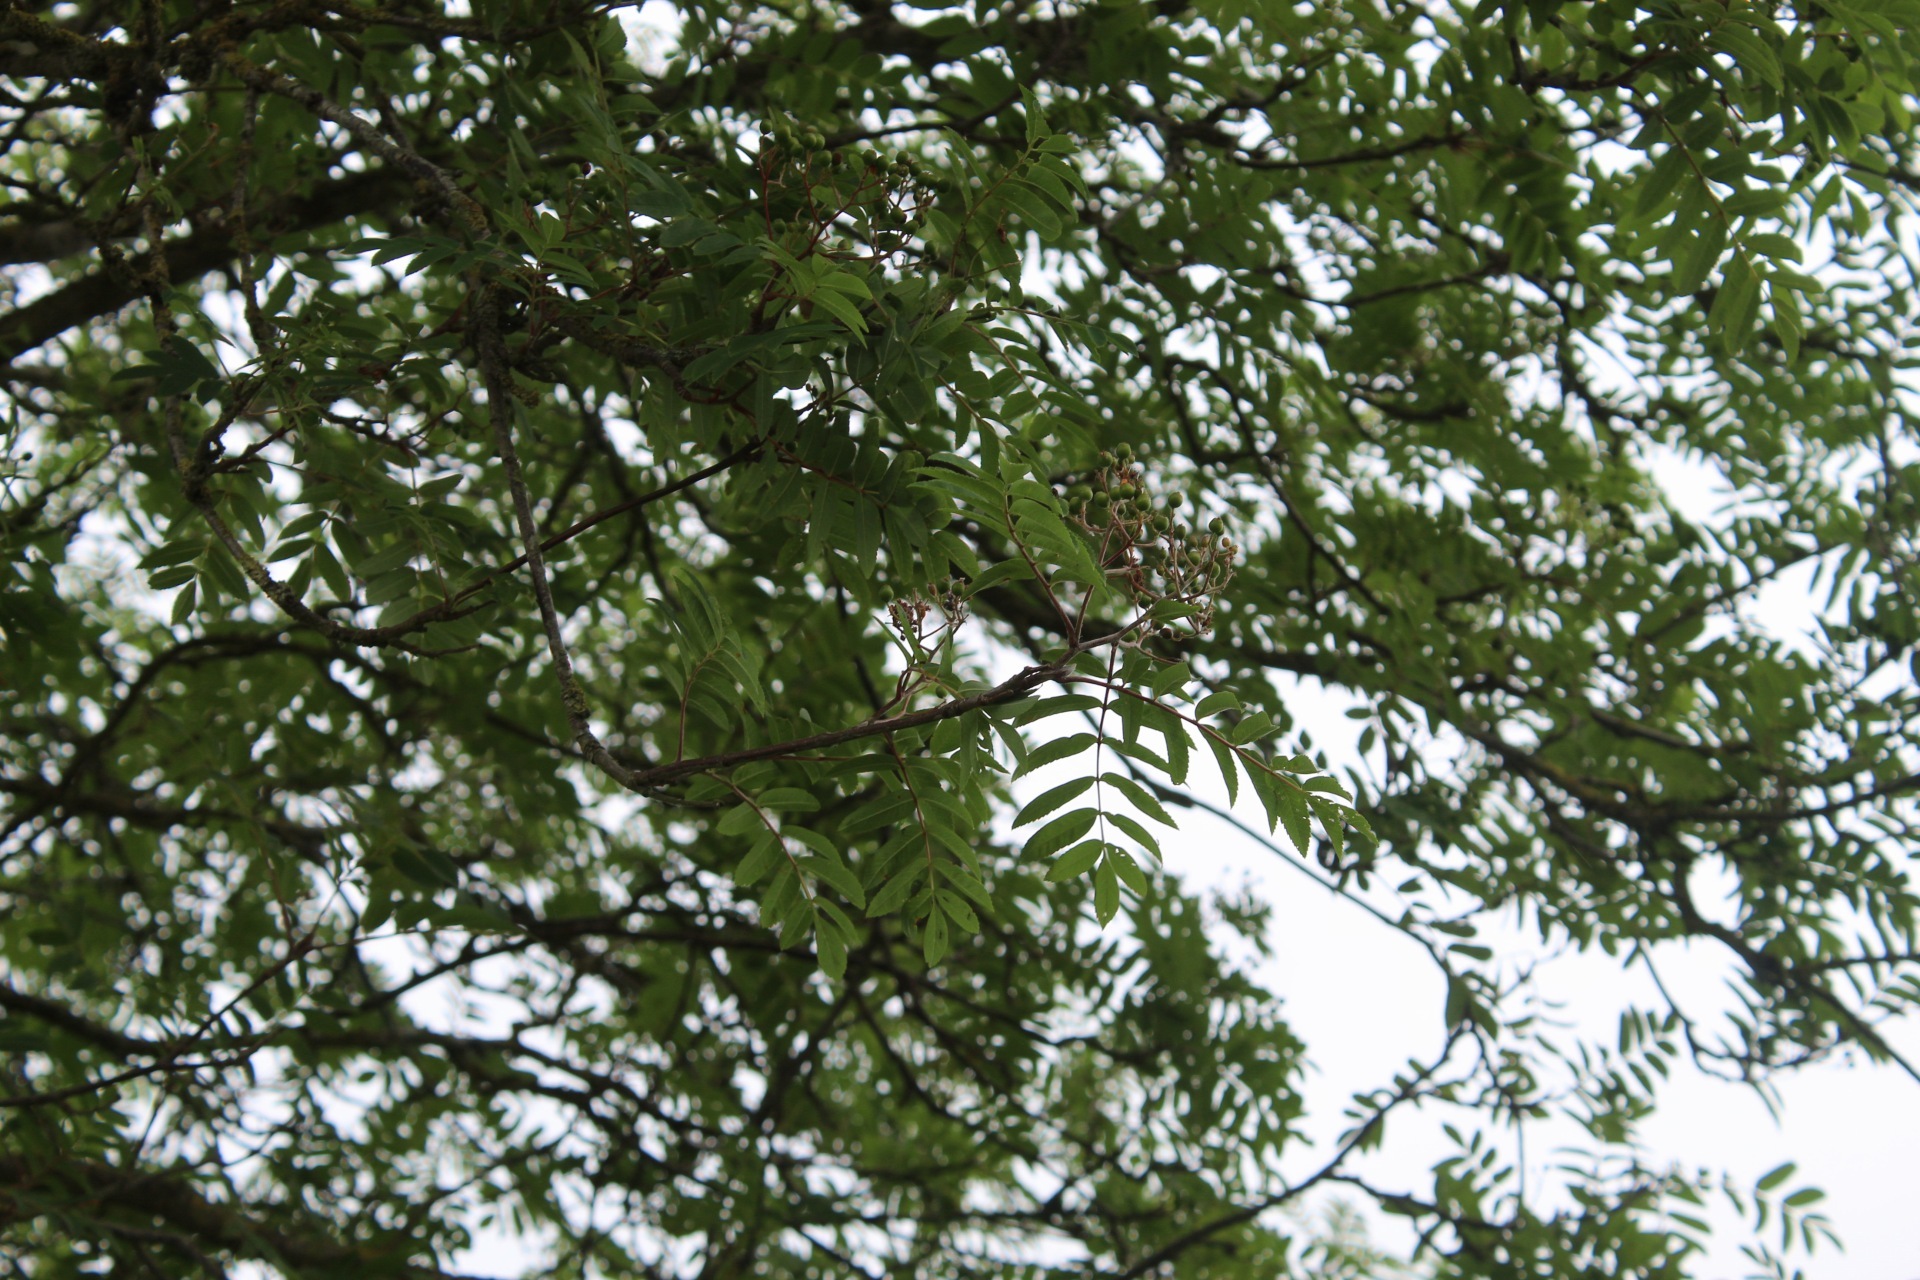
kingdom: Plantae
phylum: Tracheophyta
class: Magnoliopsida
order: Rosales
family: Rosaceae
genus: Sorbus
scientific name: Sorbus aucuparia
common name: Rowan
